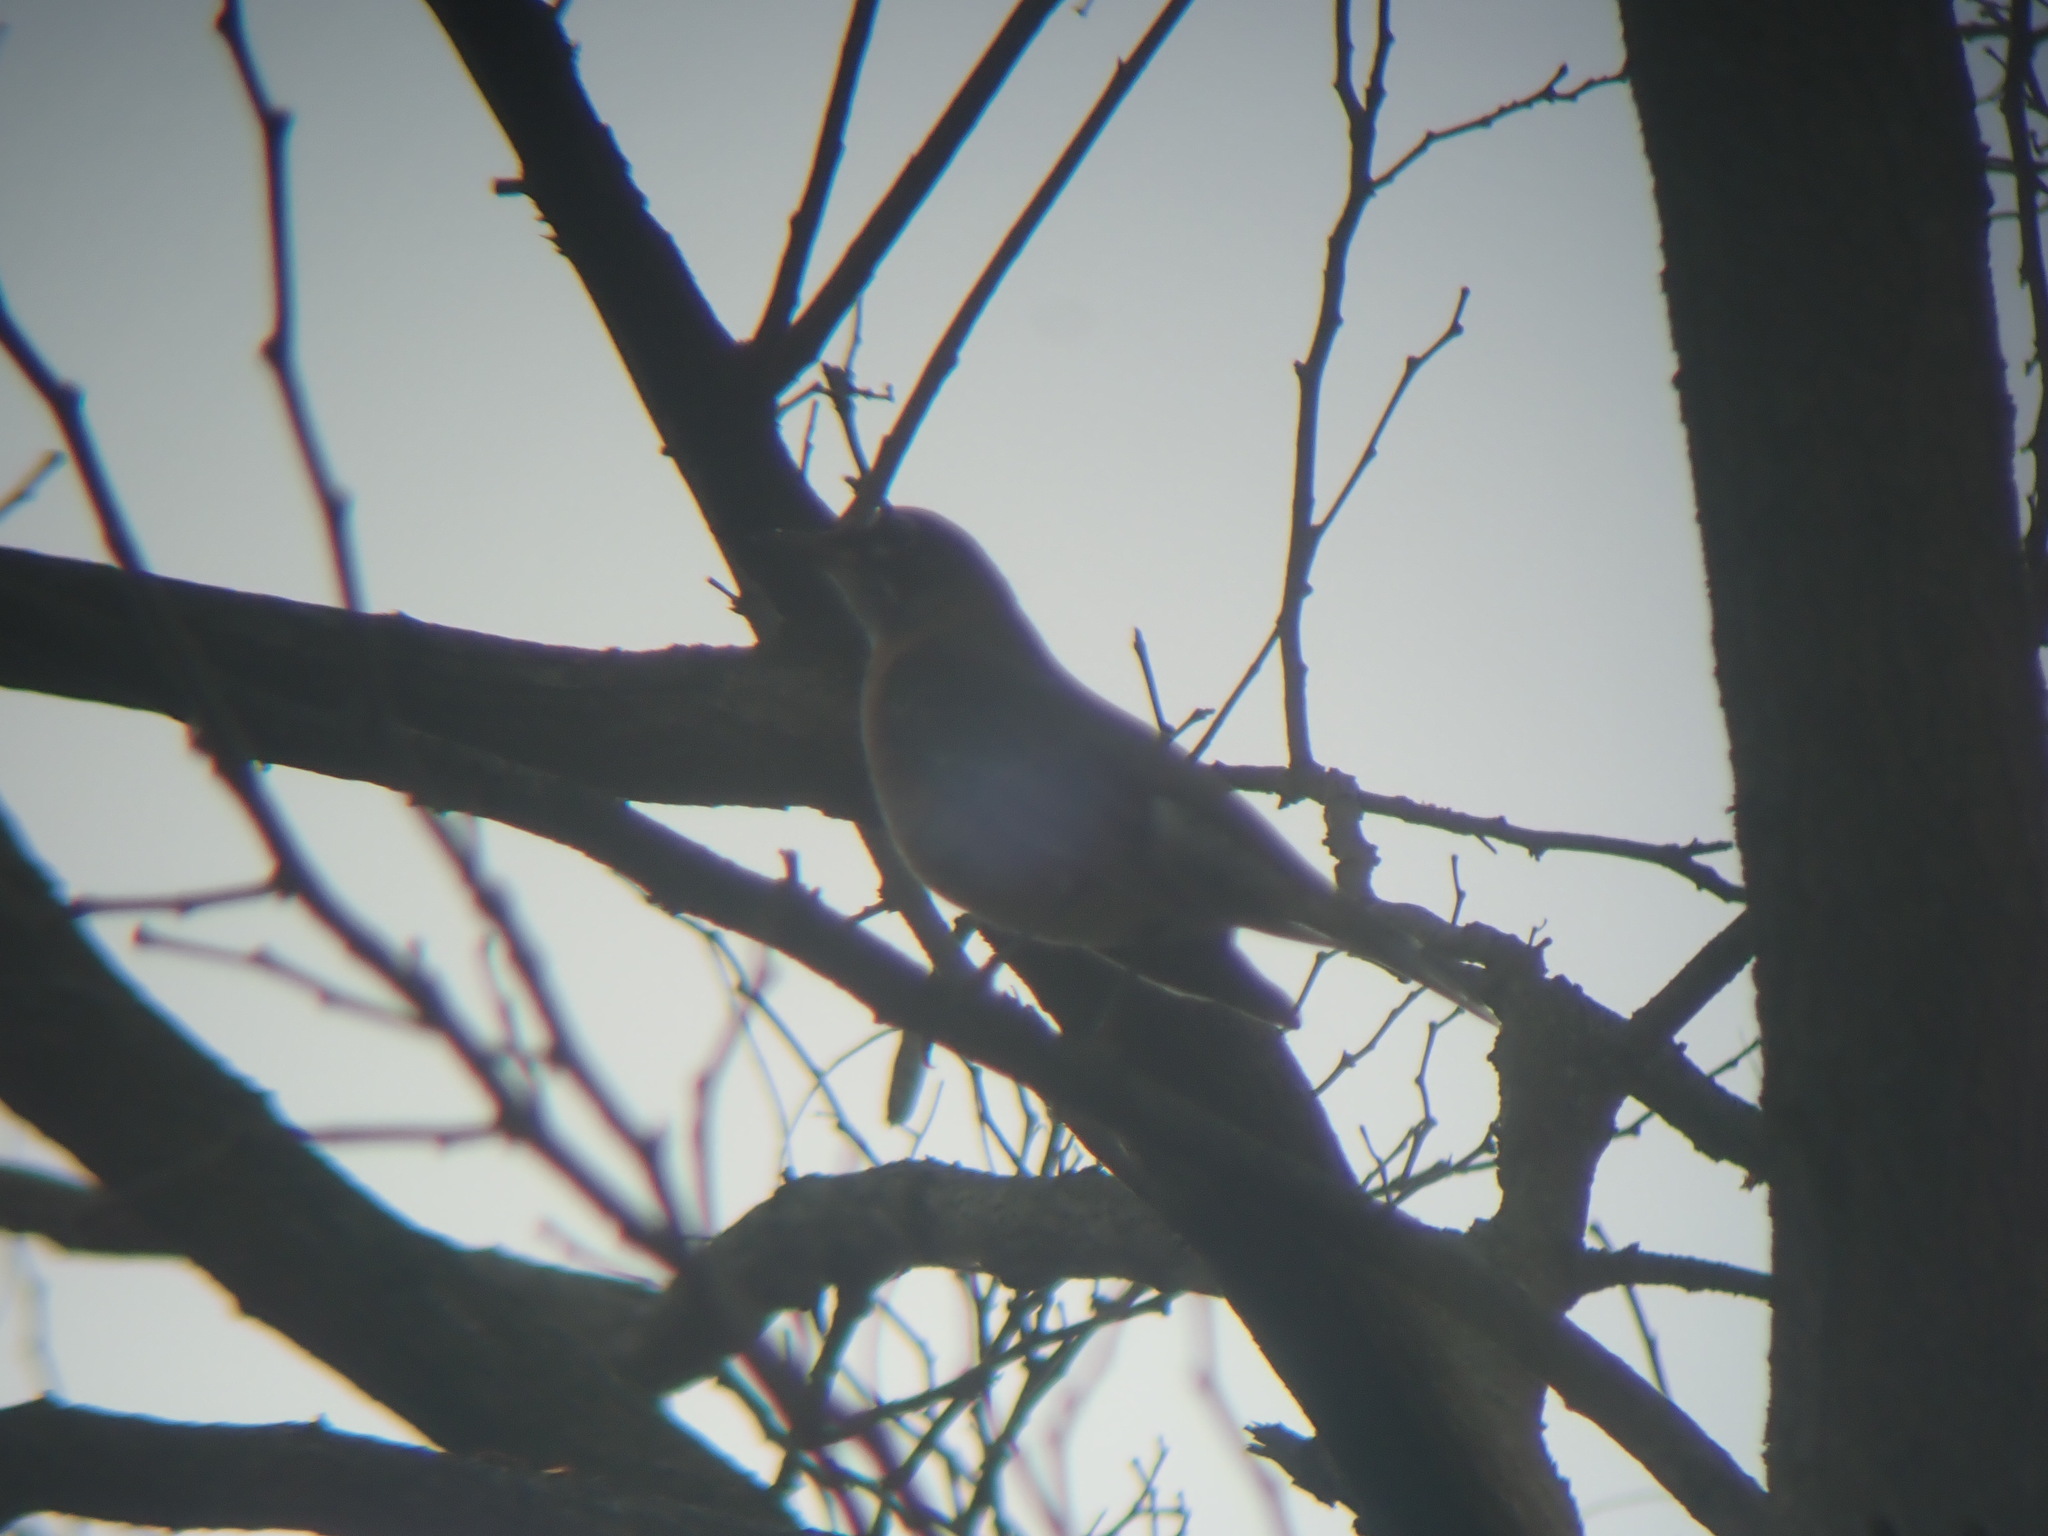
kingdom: Animalia
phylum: Chordata
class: Aves
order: Passeriformes
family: Turdidae
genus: Turdus
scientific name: Turdus migratorius
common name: American robin
